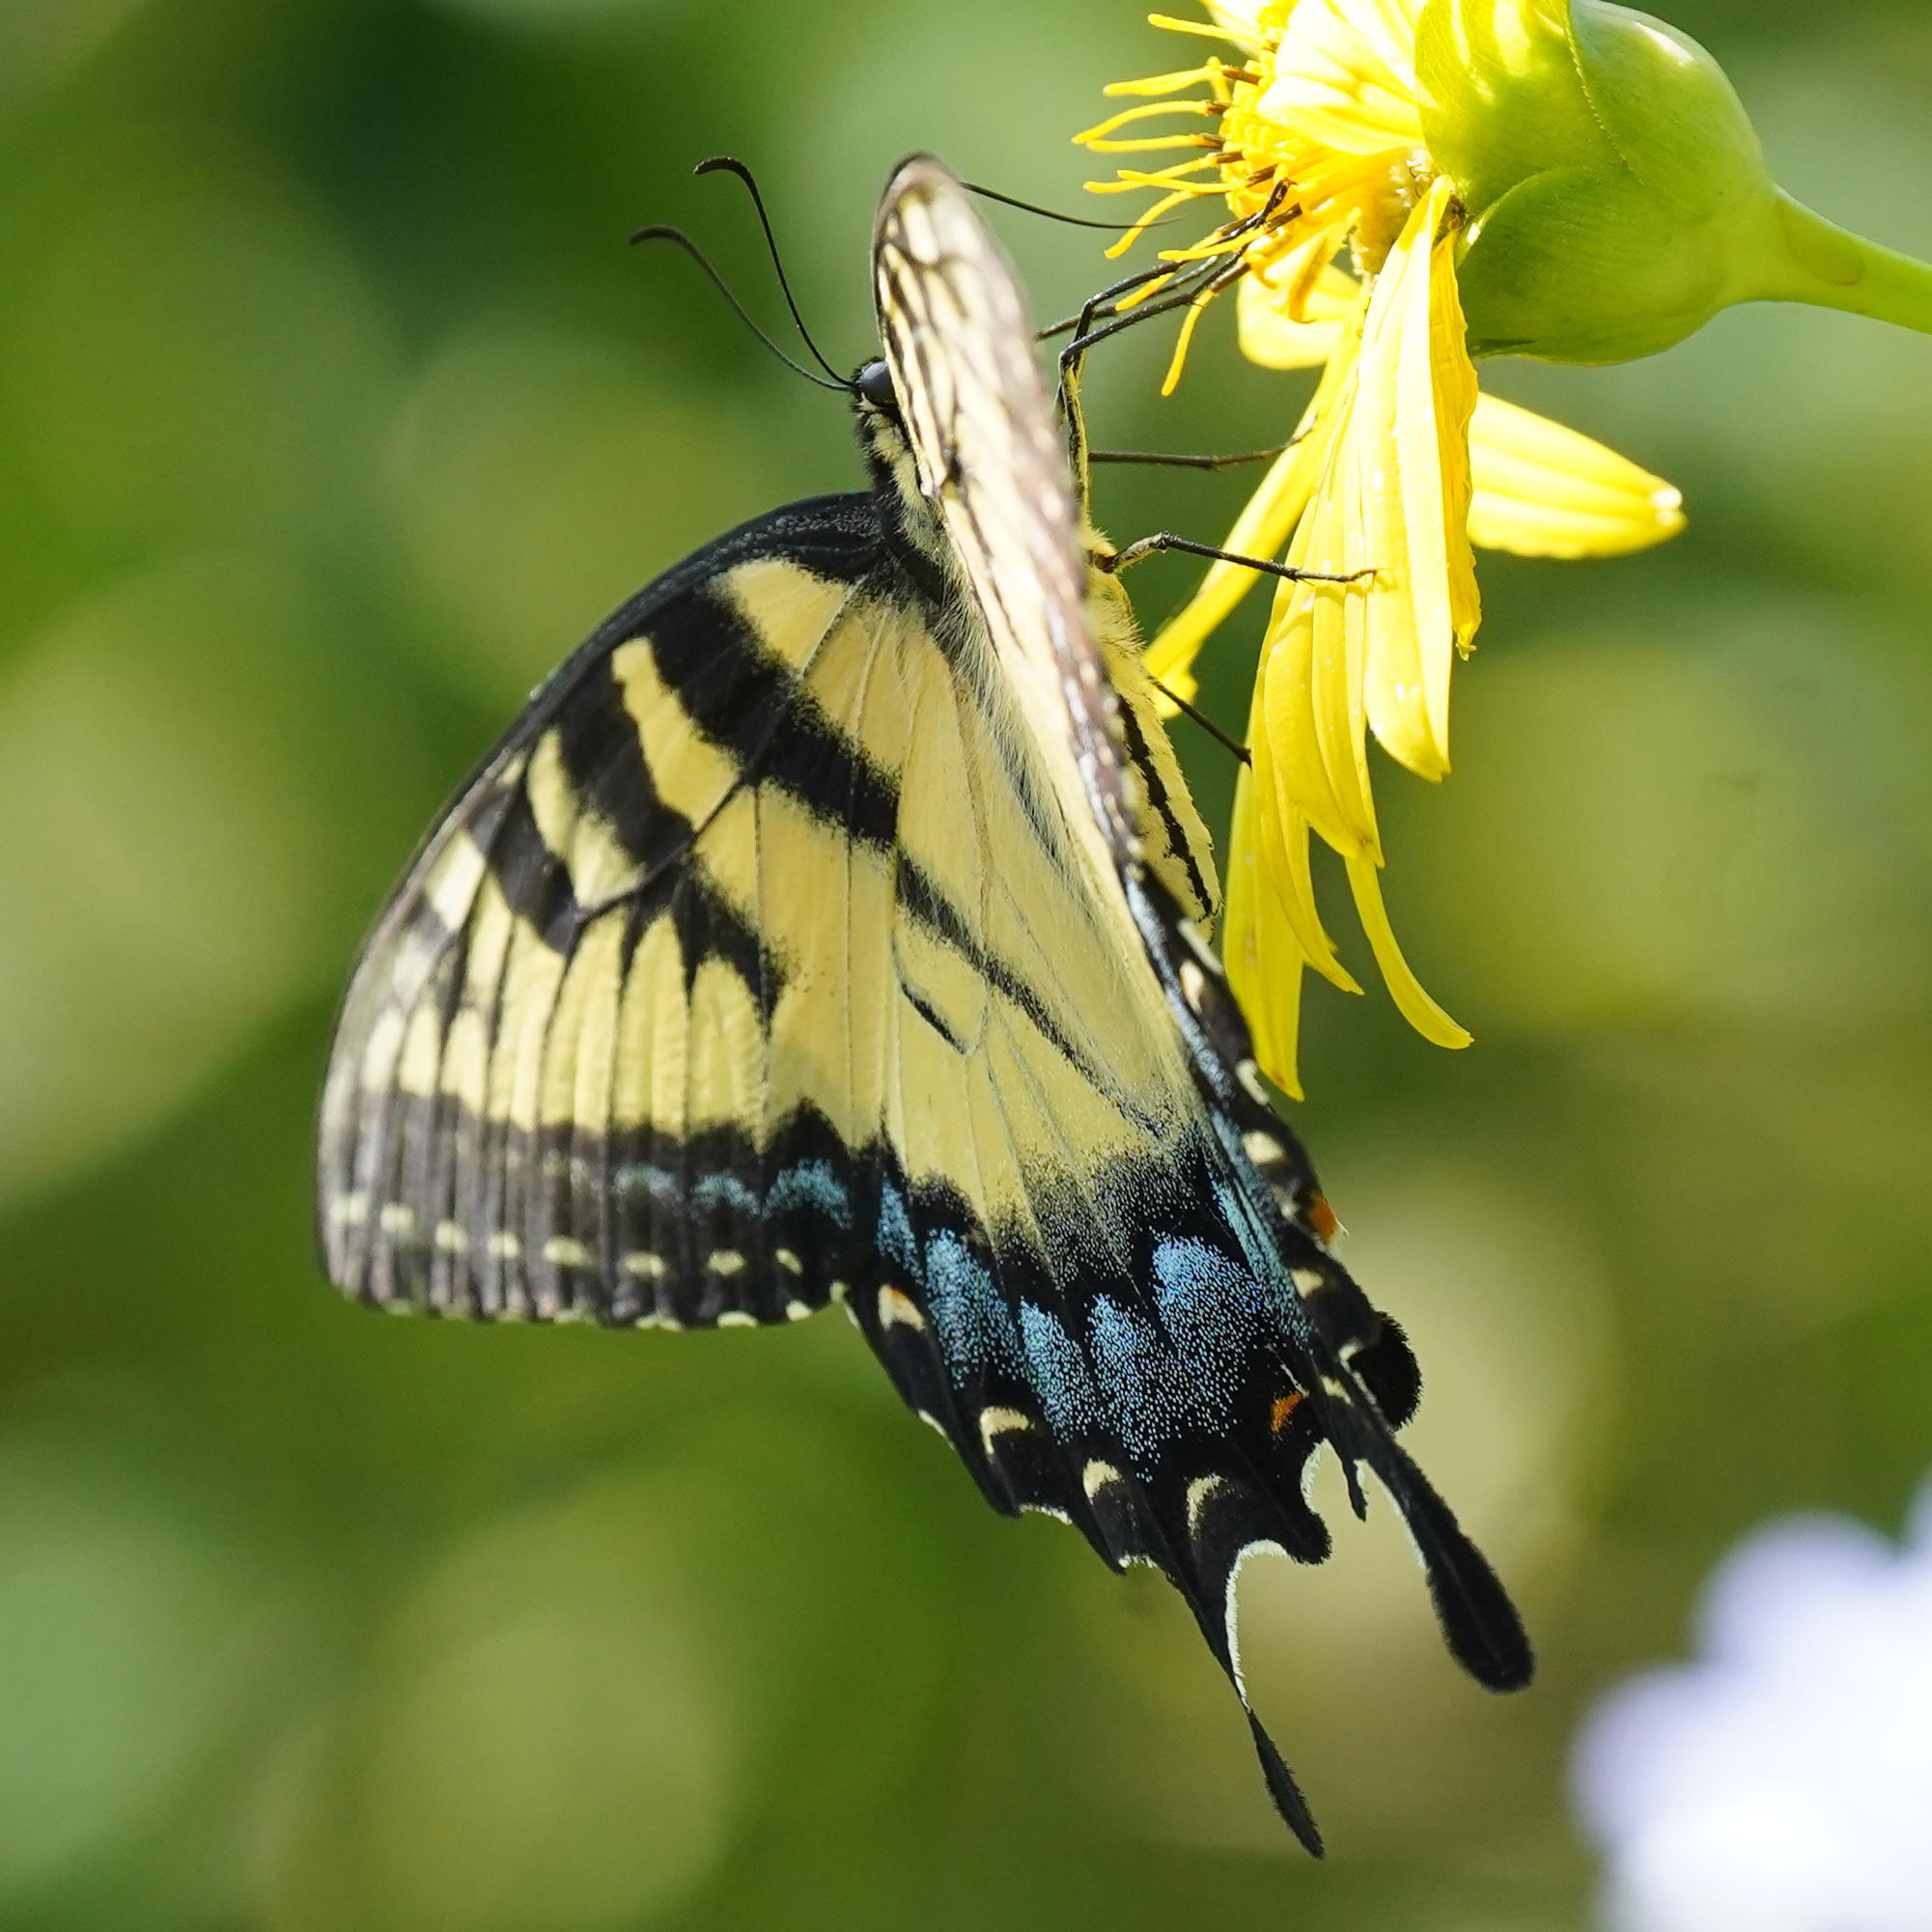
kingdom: Animalia
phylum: Arthropoda
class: Insecta
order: Lepidoptera
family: Papilionidae
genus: Papilio
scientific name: Papilio glaucus
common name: Tiger swallowtail
